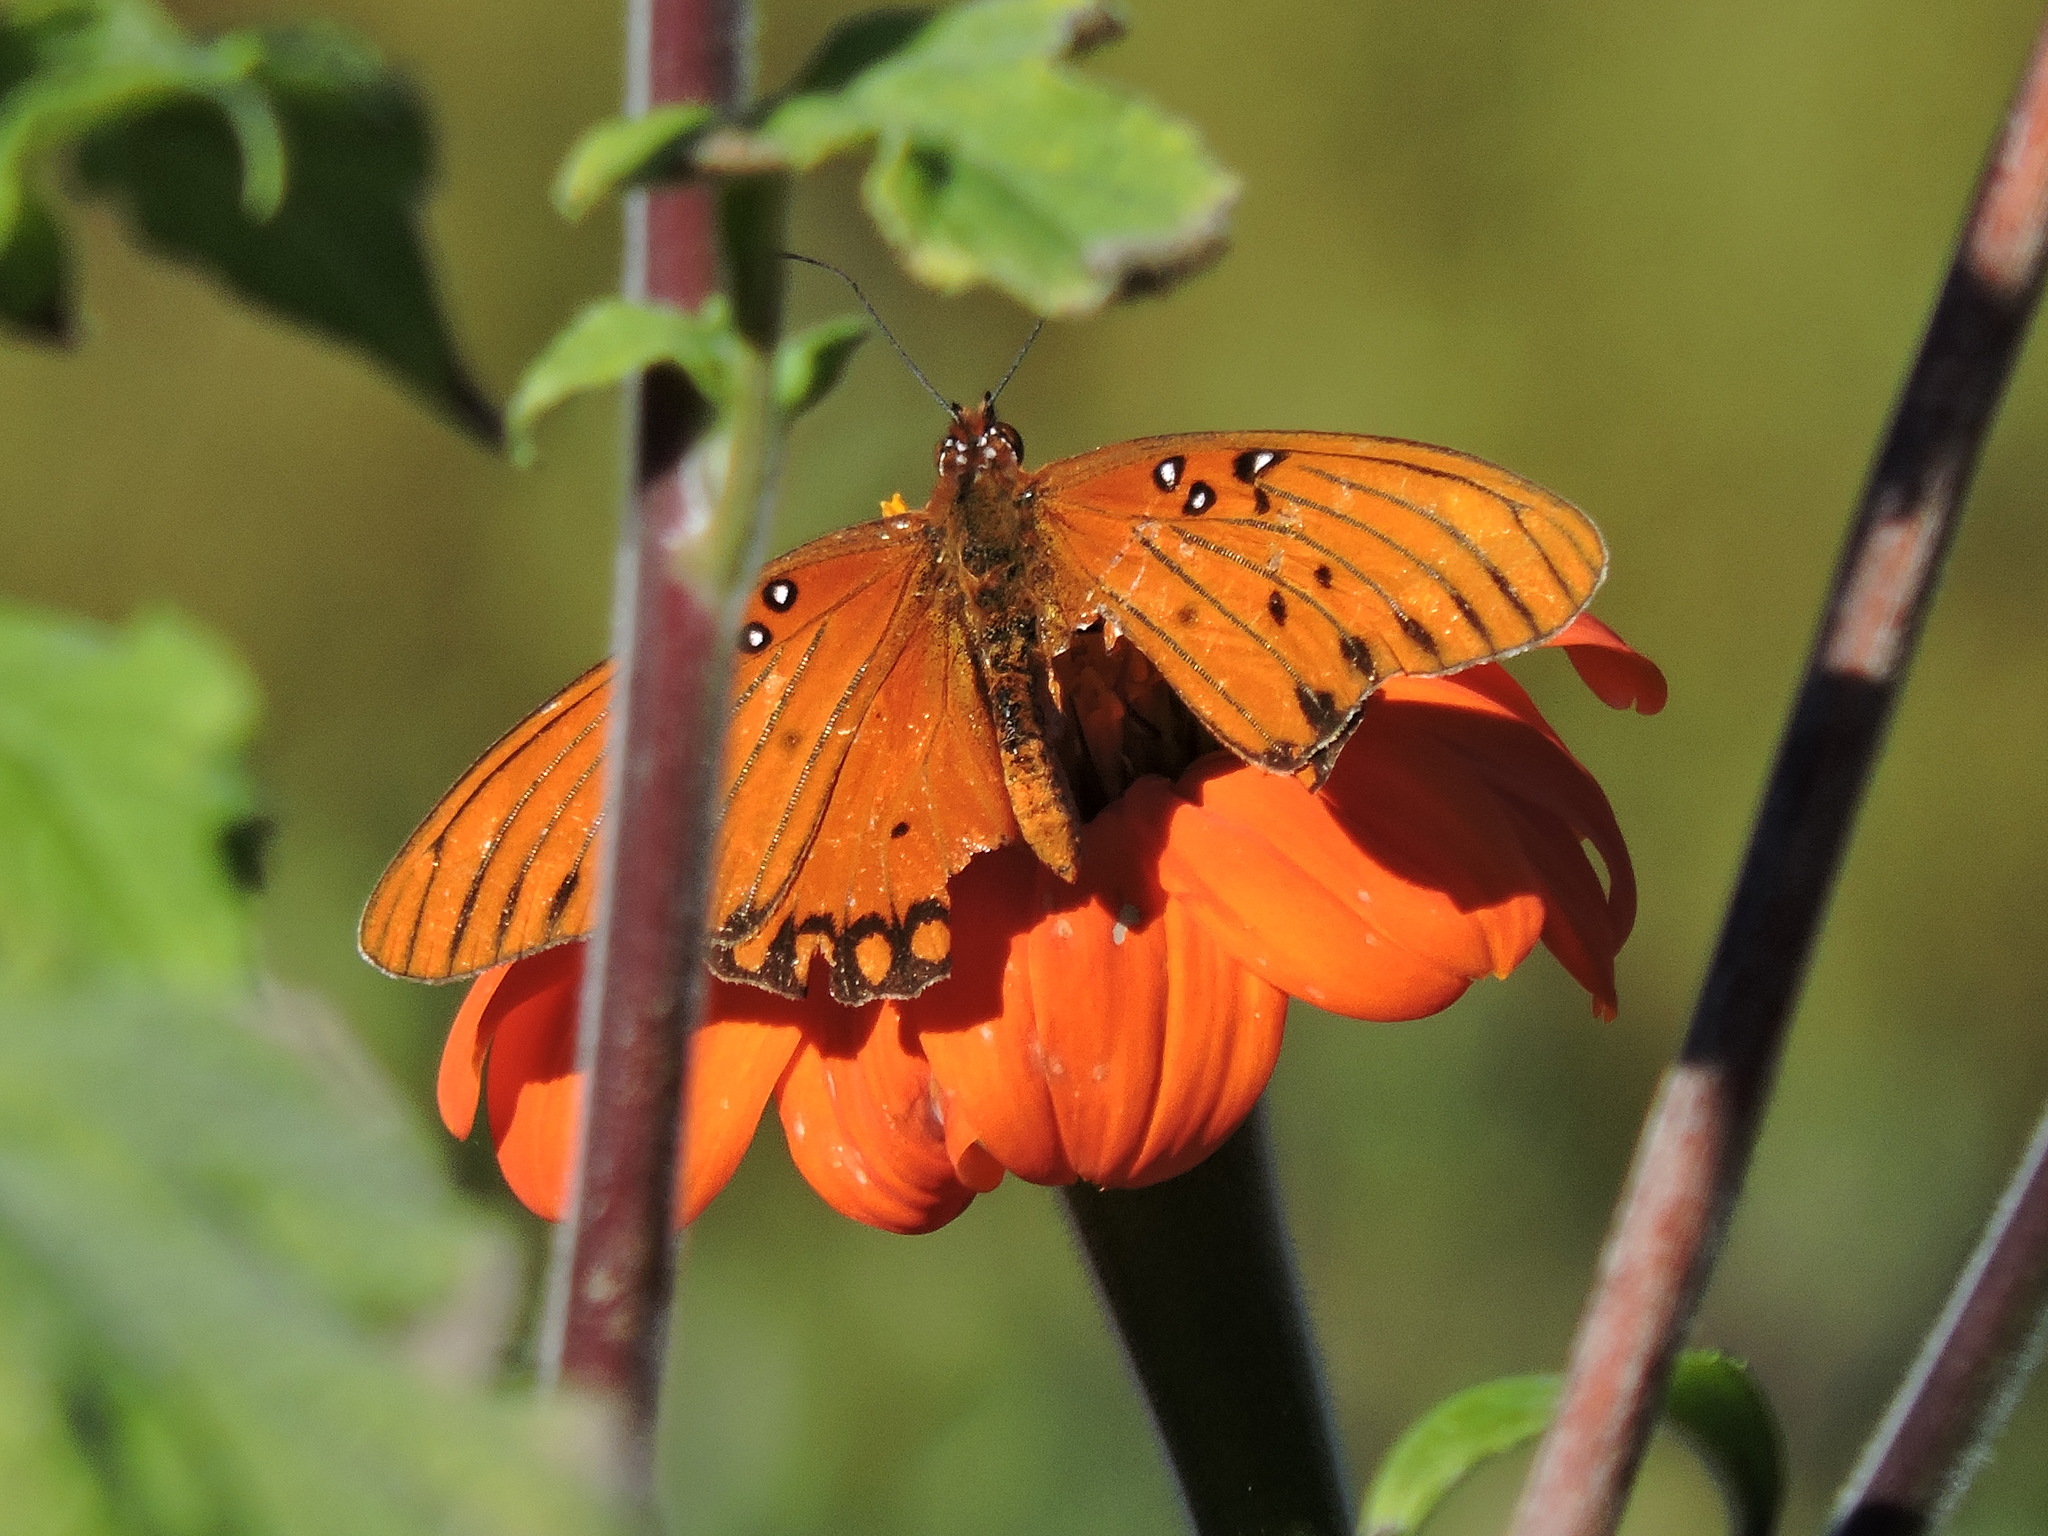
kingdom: Animalia
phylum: Arthropoda
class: Insecta
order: Lepidoptera
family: Nymphalidae
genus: Dione
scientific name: Dione vanillae
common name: Gulf fritillary
